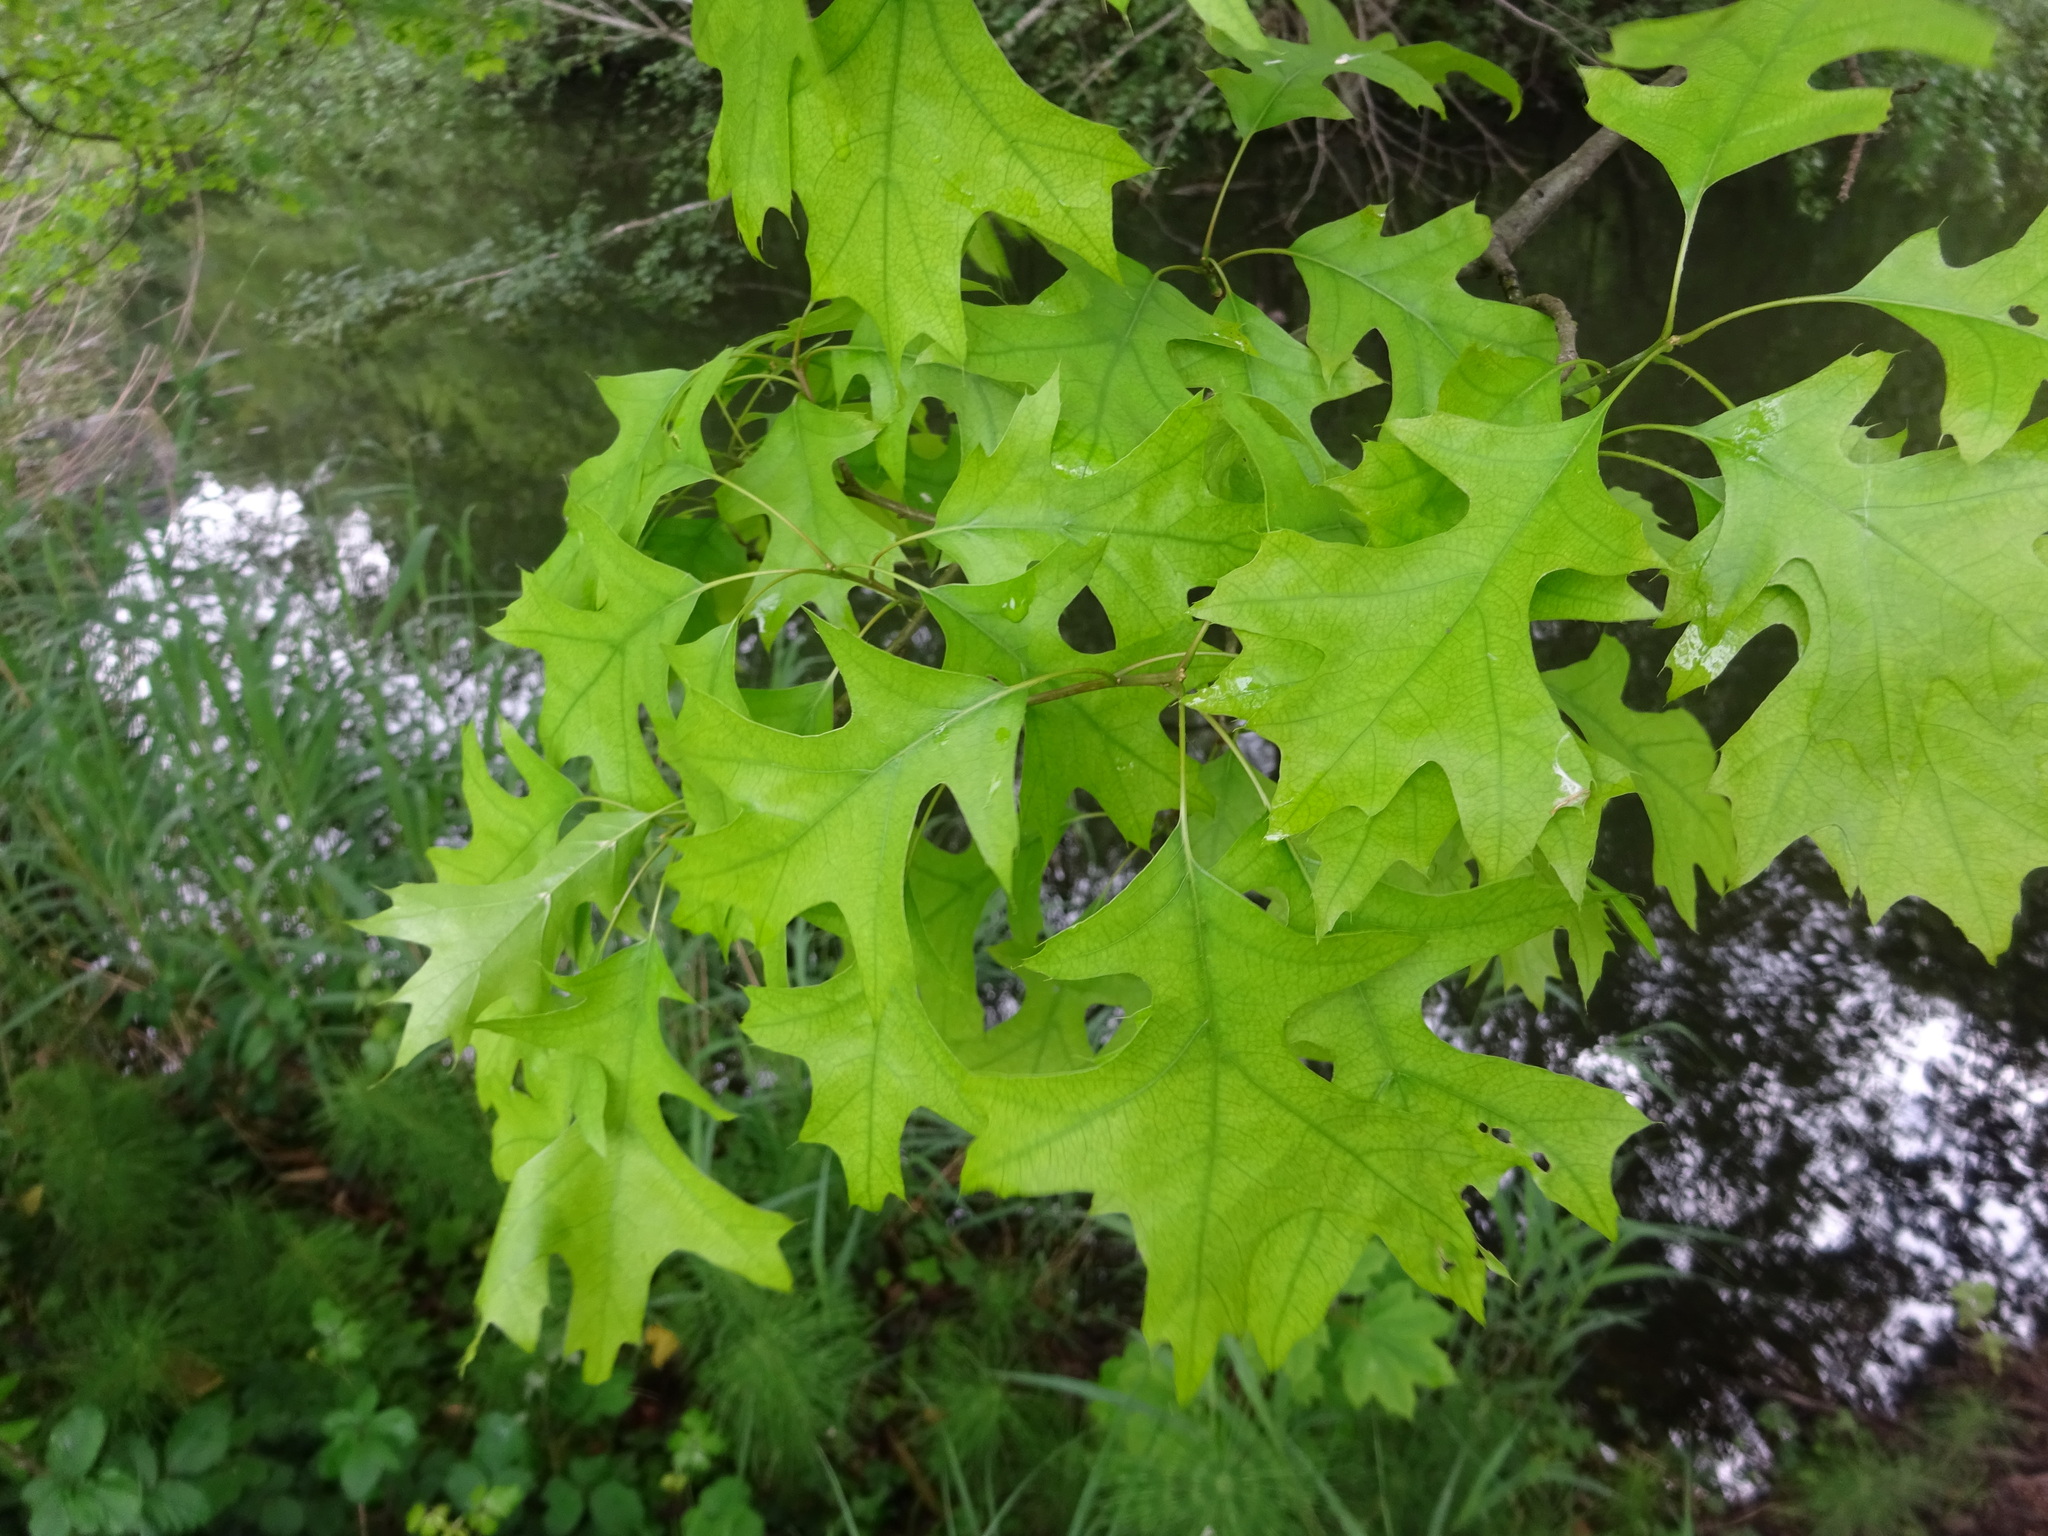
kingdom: Plantae
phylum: Tracheophyta
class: Magnoliopsida
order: Fagales
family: Fagaceae
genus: Quercus
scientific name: Quercus rubra
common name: Red oak
